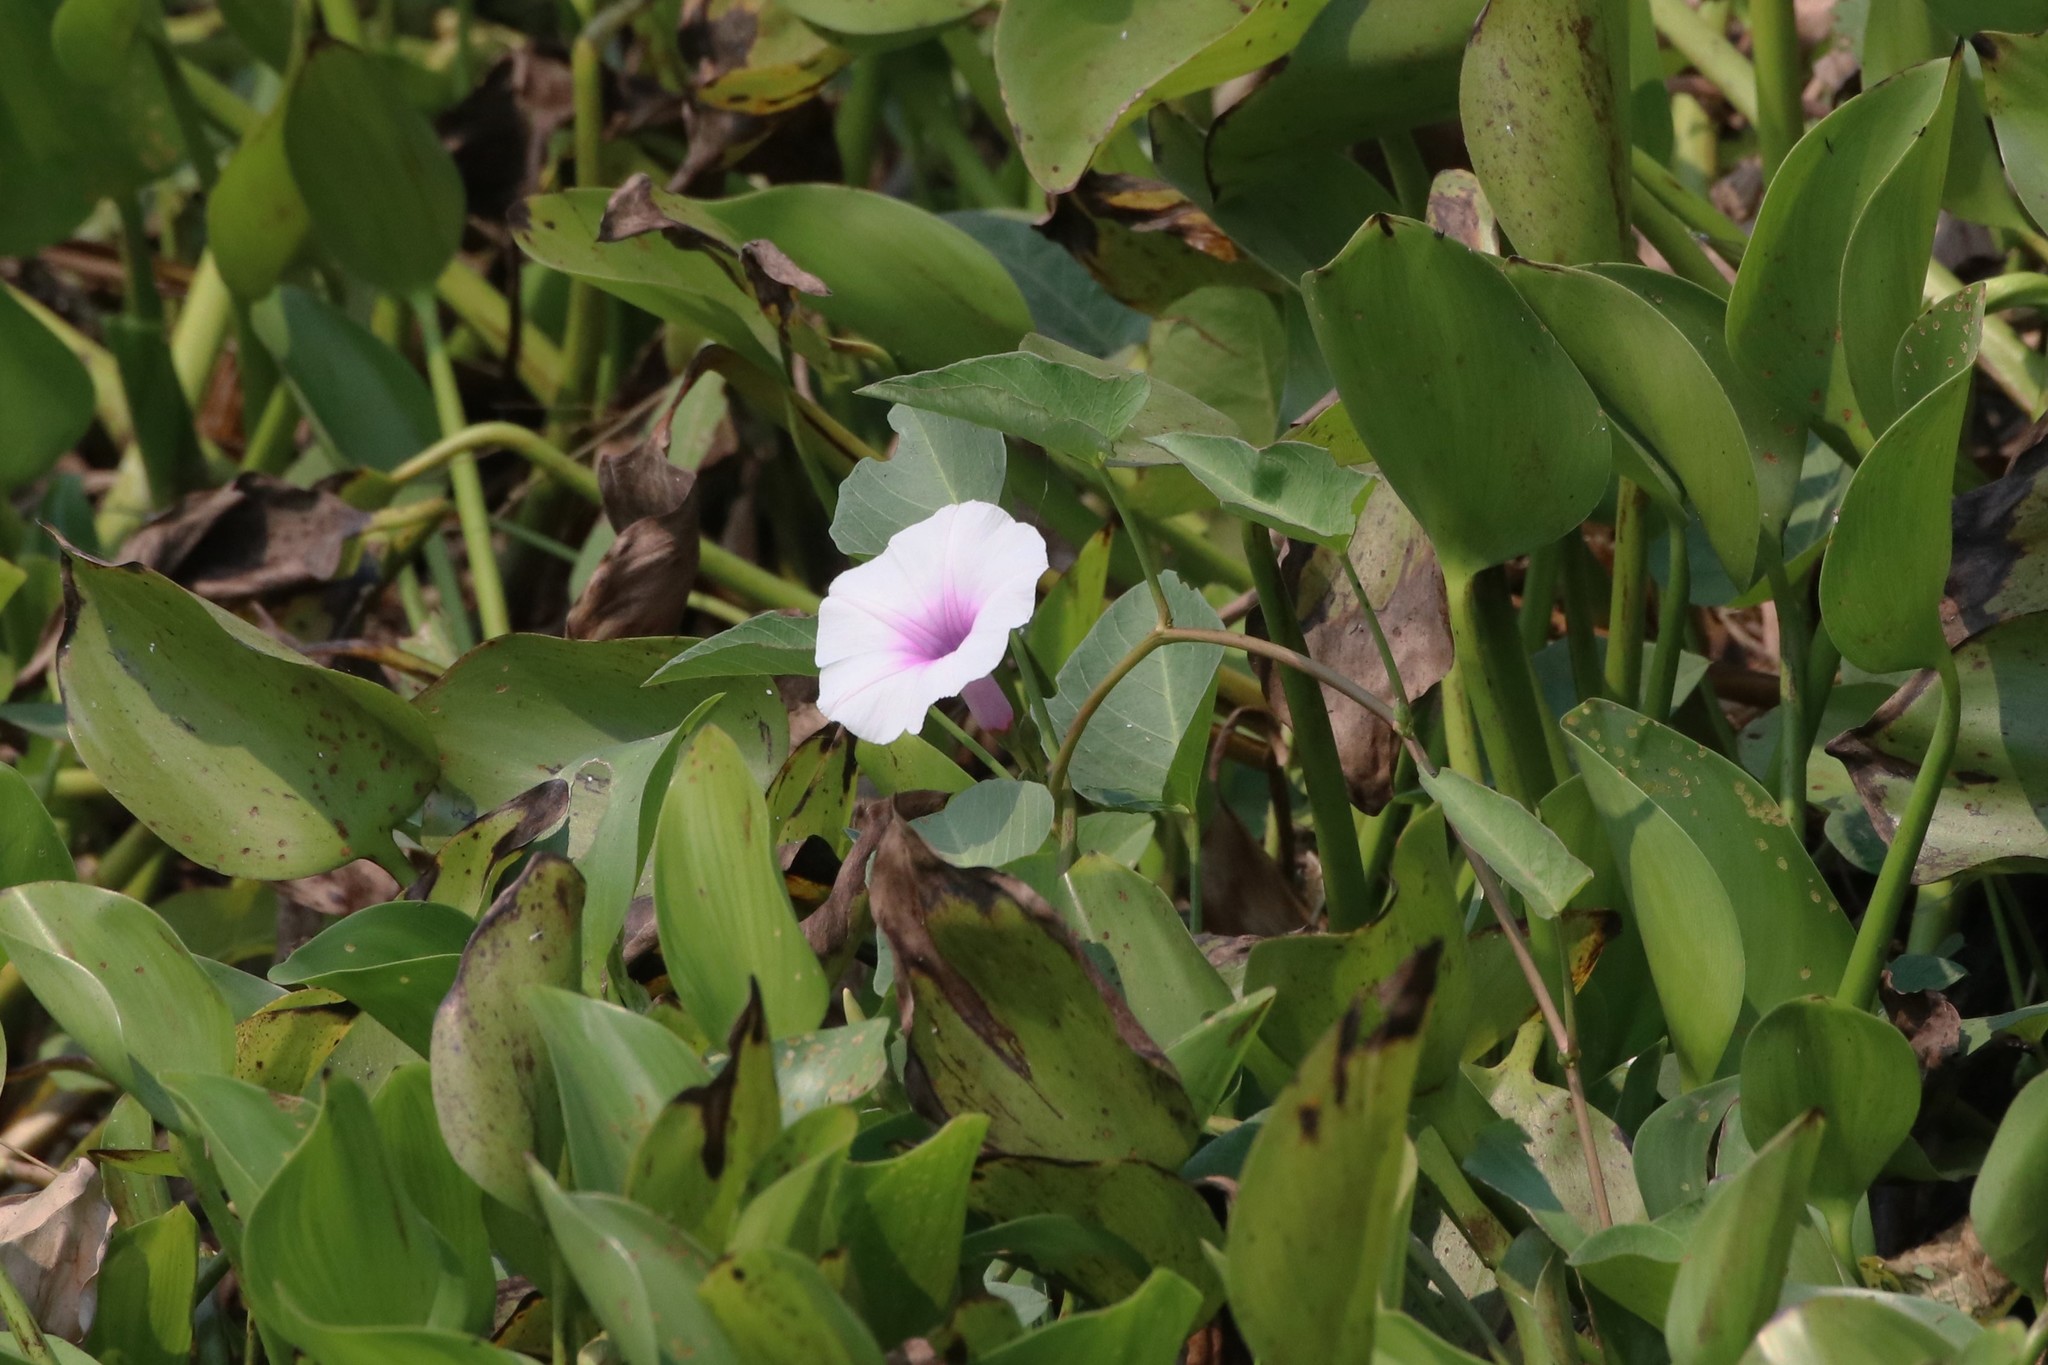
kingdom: Plantae
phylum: Tracheophyta
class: Magnoliopsida
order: Solanales
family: Convolvulaceae
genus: Ipomoea
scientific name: Ipomoea aquatica
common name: Swamp morning-glory
